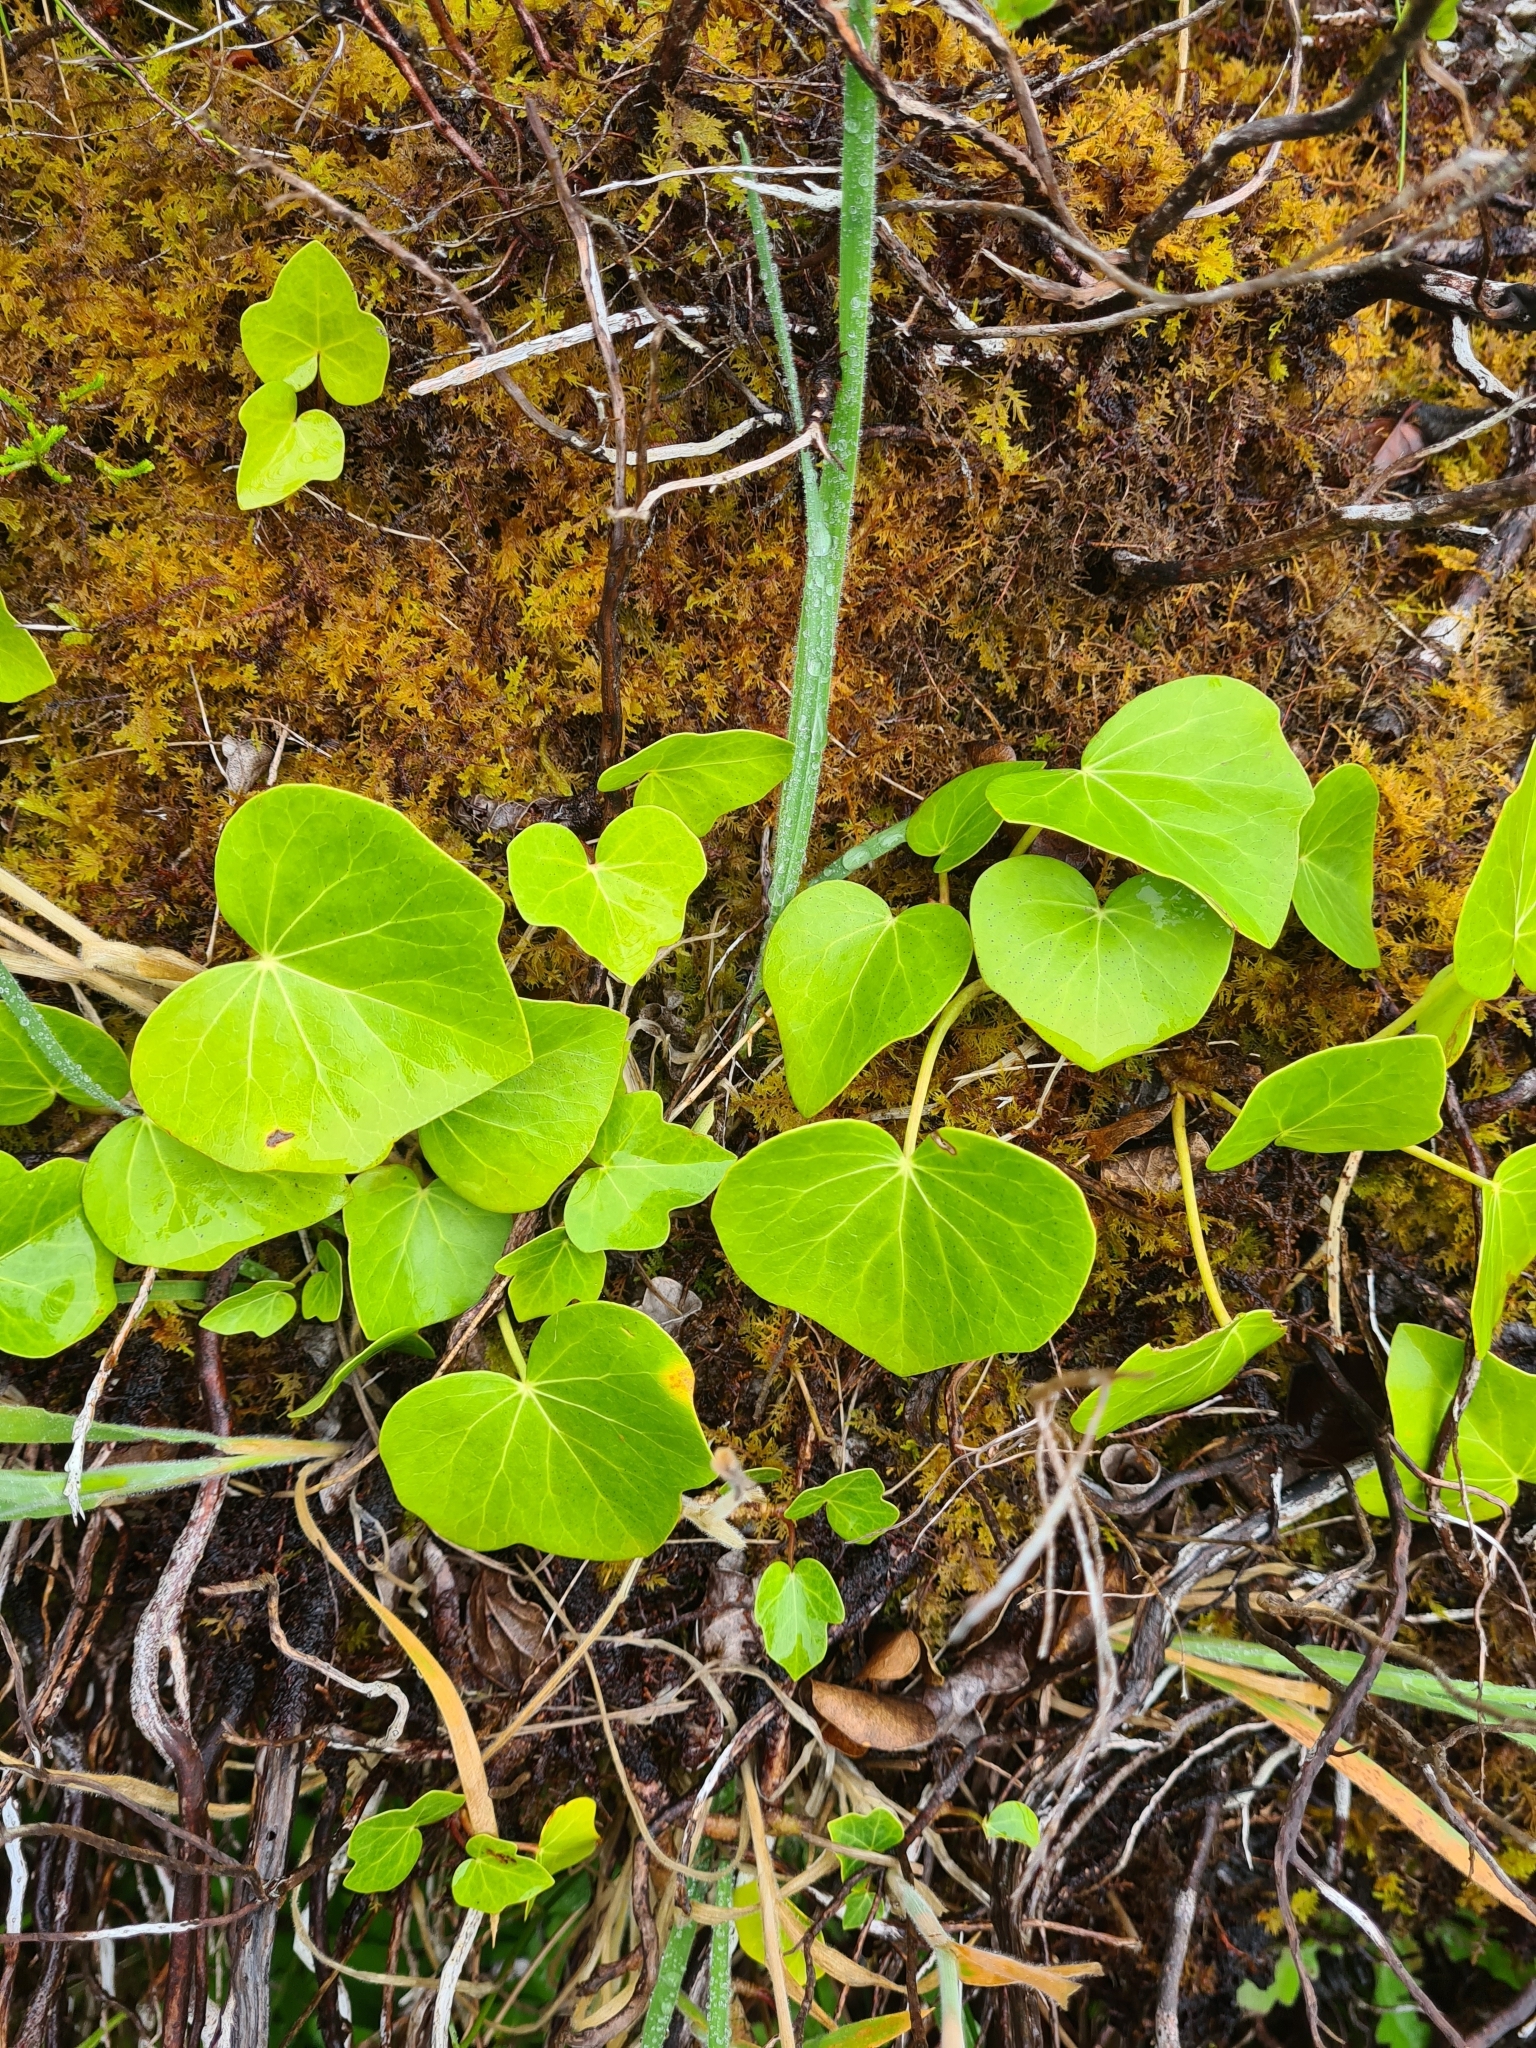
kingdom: Plantae
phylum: Tracheophyta
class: Magnoliopsida
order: Apiales
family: Araliaceae
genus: Hedera
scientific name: Hedera azorica
